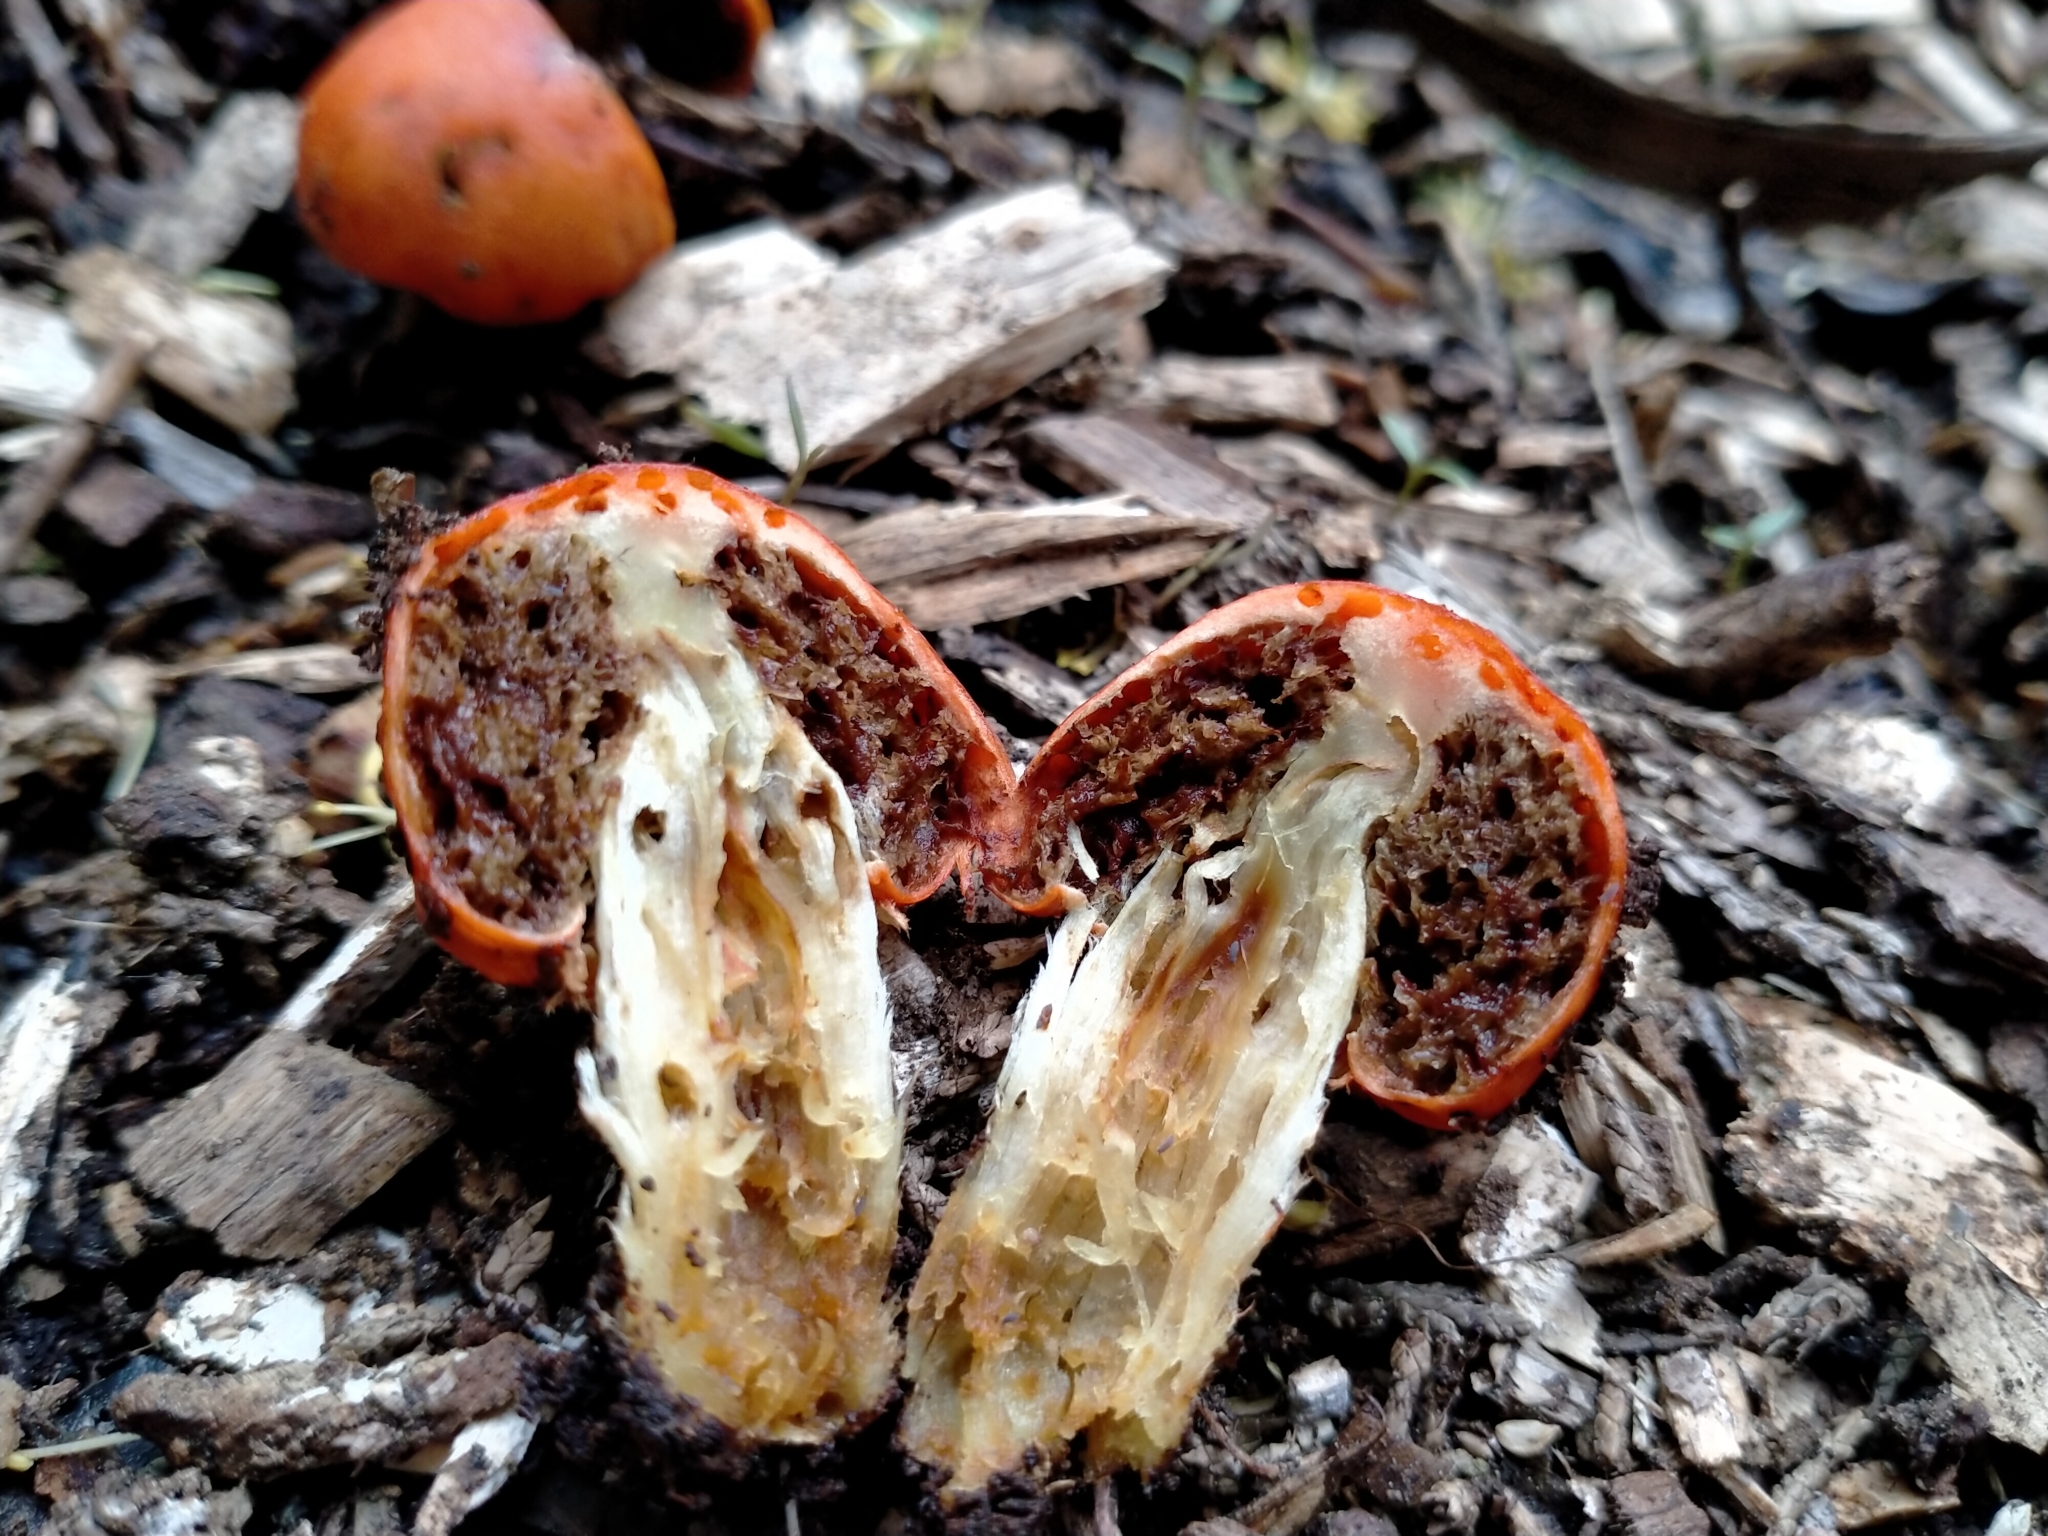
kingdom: Fungi
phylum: Basidiomycota
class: Agaricomycetes
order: Agaricales
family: Strophariaceae
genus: Leratiomyces
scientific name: Leratiomyces erythrocephalus
